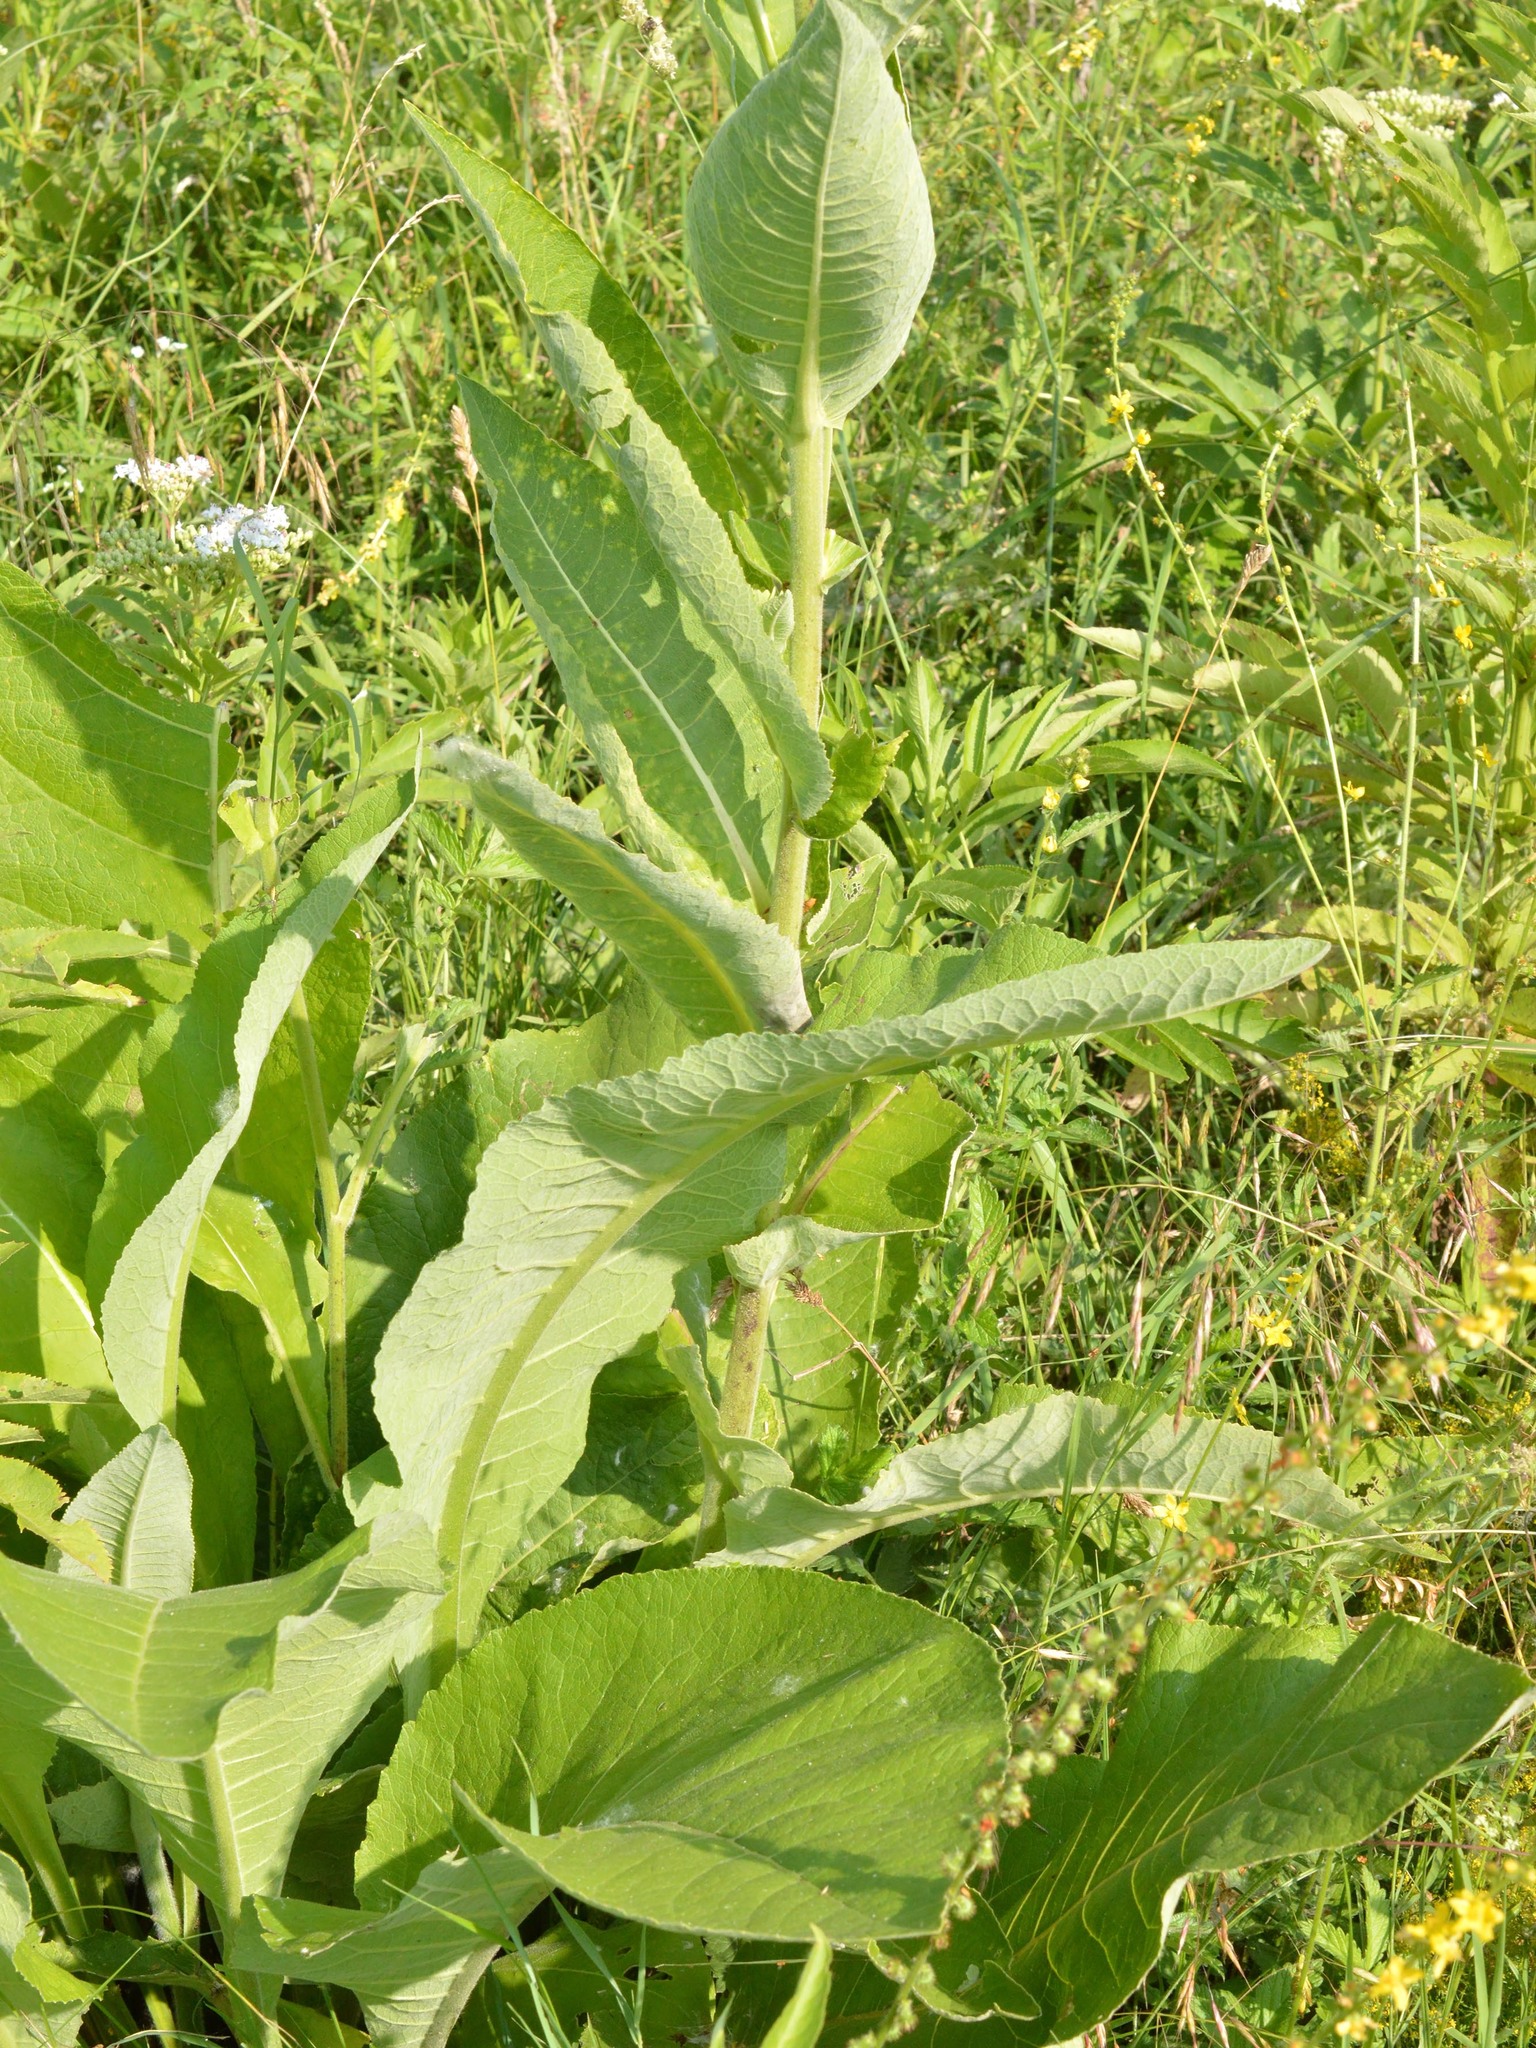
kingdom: Plantae
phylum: Tracheophyta
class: Magnoliopsida
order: Asterales
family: Asteraceae
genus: Inula
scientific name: Inula helenium
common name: Elecampane
